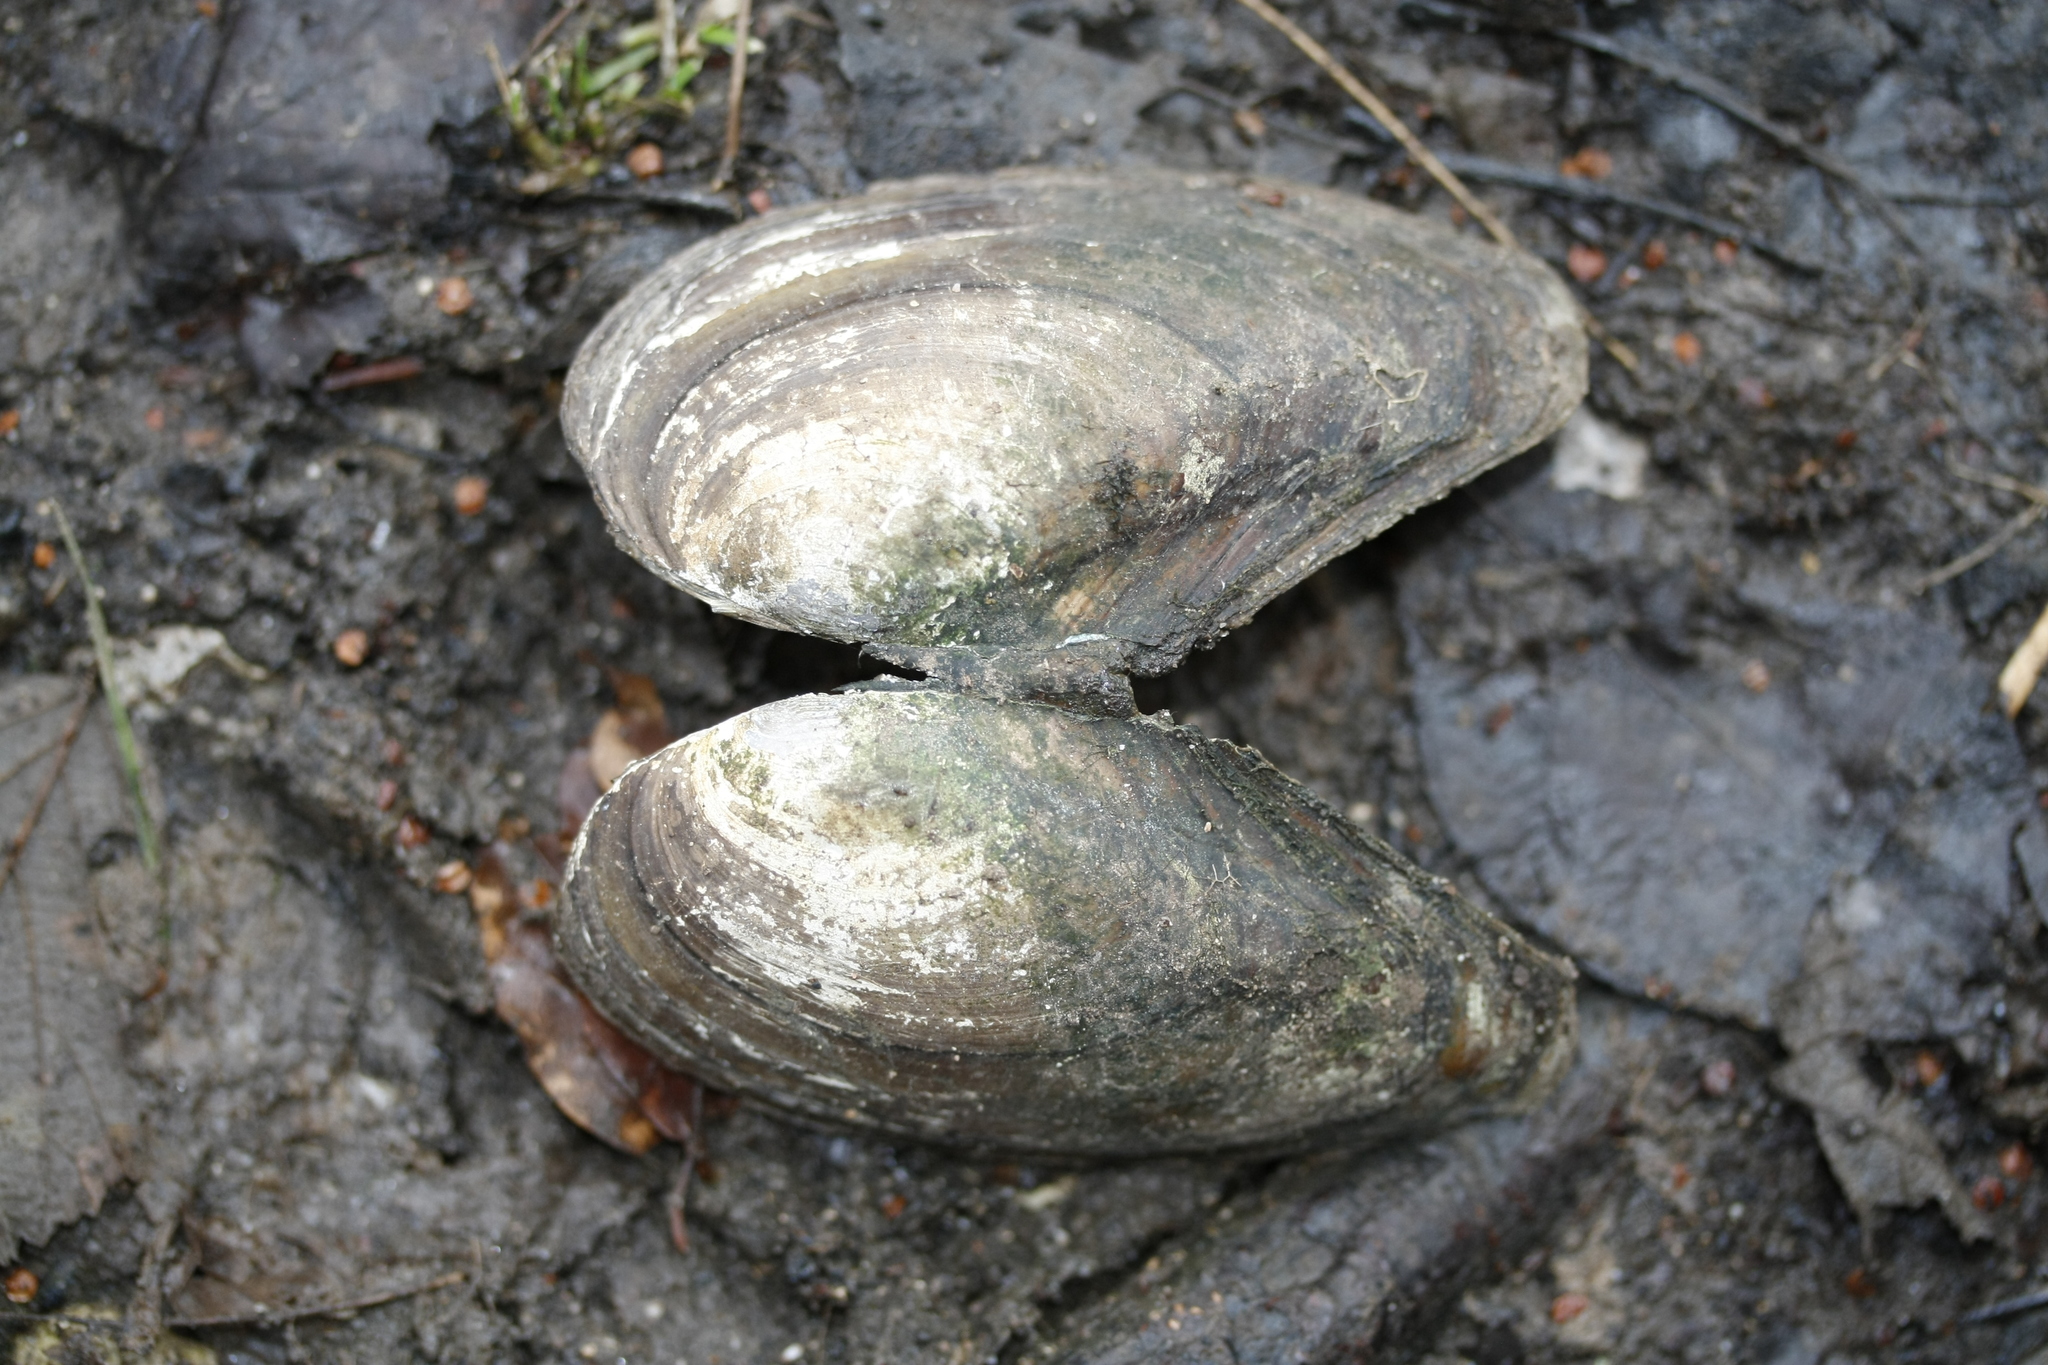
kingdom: Animalia
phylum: Mollusca
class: Bivalvia
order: Unionida
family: Unionidae
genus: Anodonta
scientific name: Anodonta anatina
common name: Duck mussel
